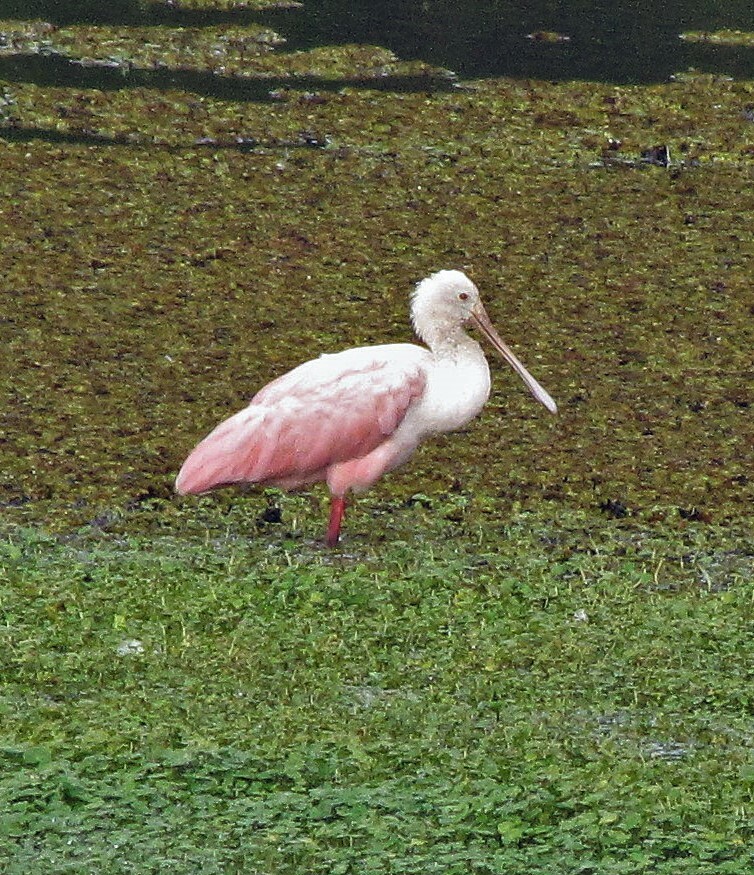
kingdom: Animalia
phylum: Chordata
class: Aves
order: Pelecaniformes
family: Threskiornithidae
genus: Platalea
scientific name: Platalea ajaja
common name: Roseate spoonbill
